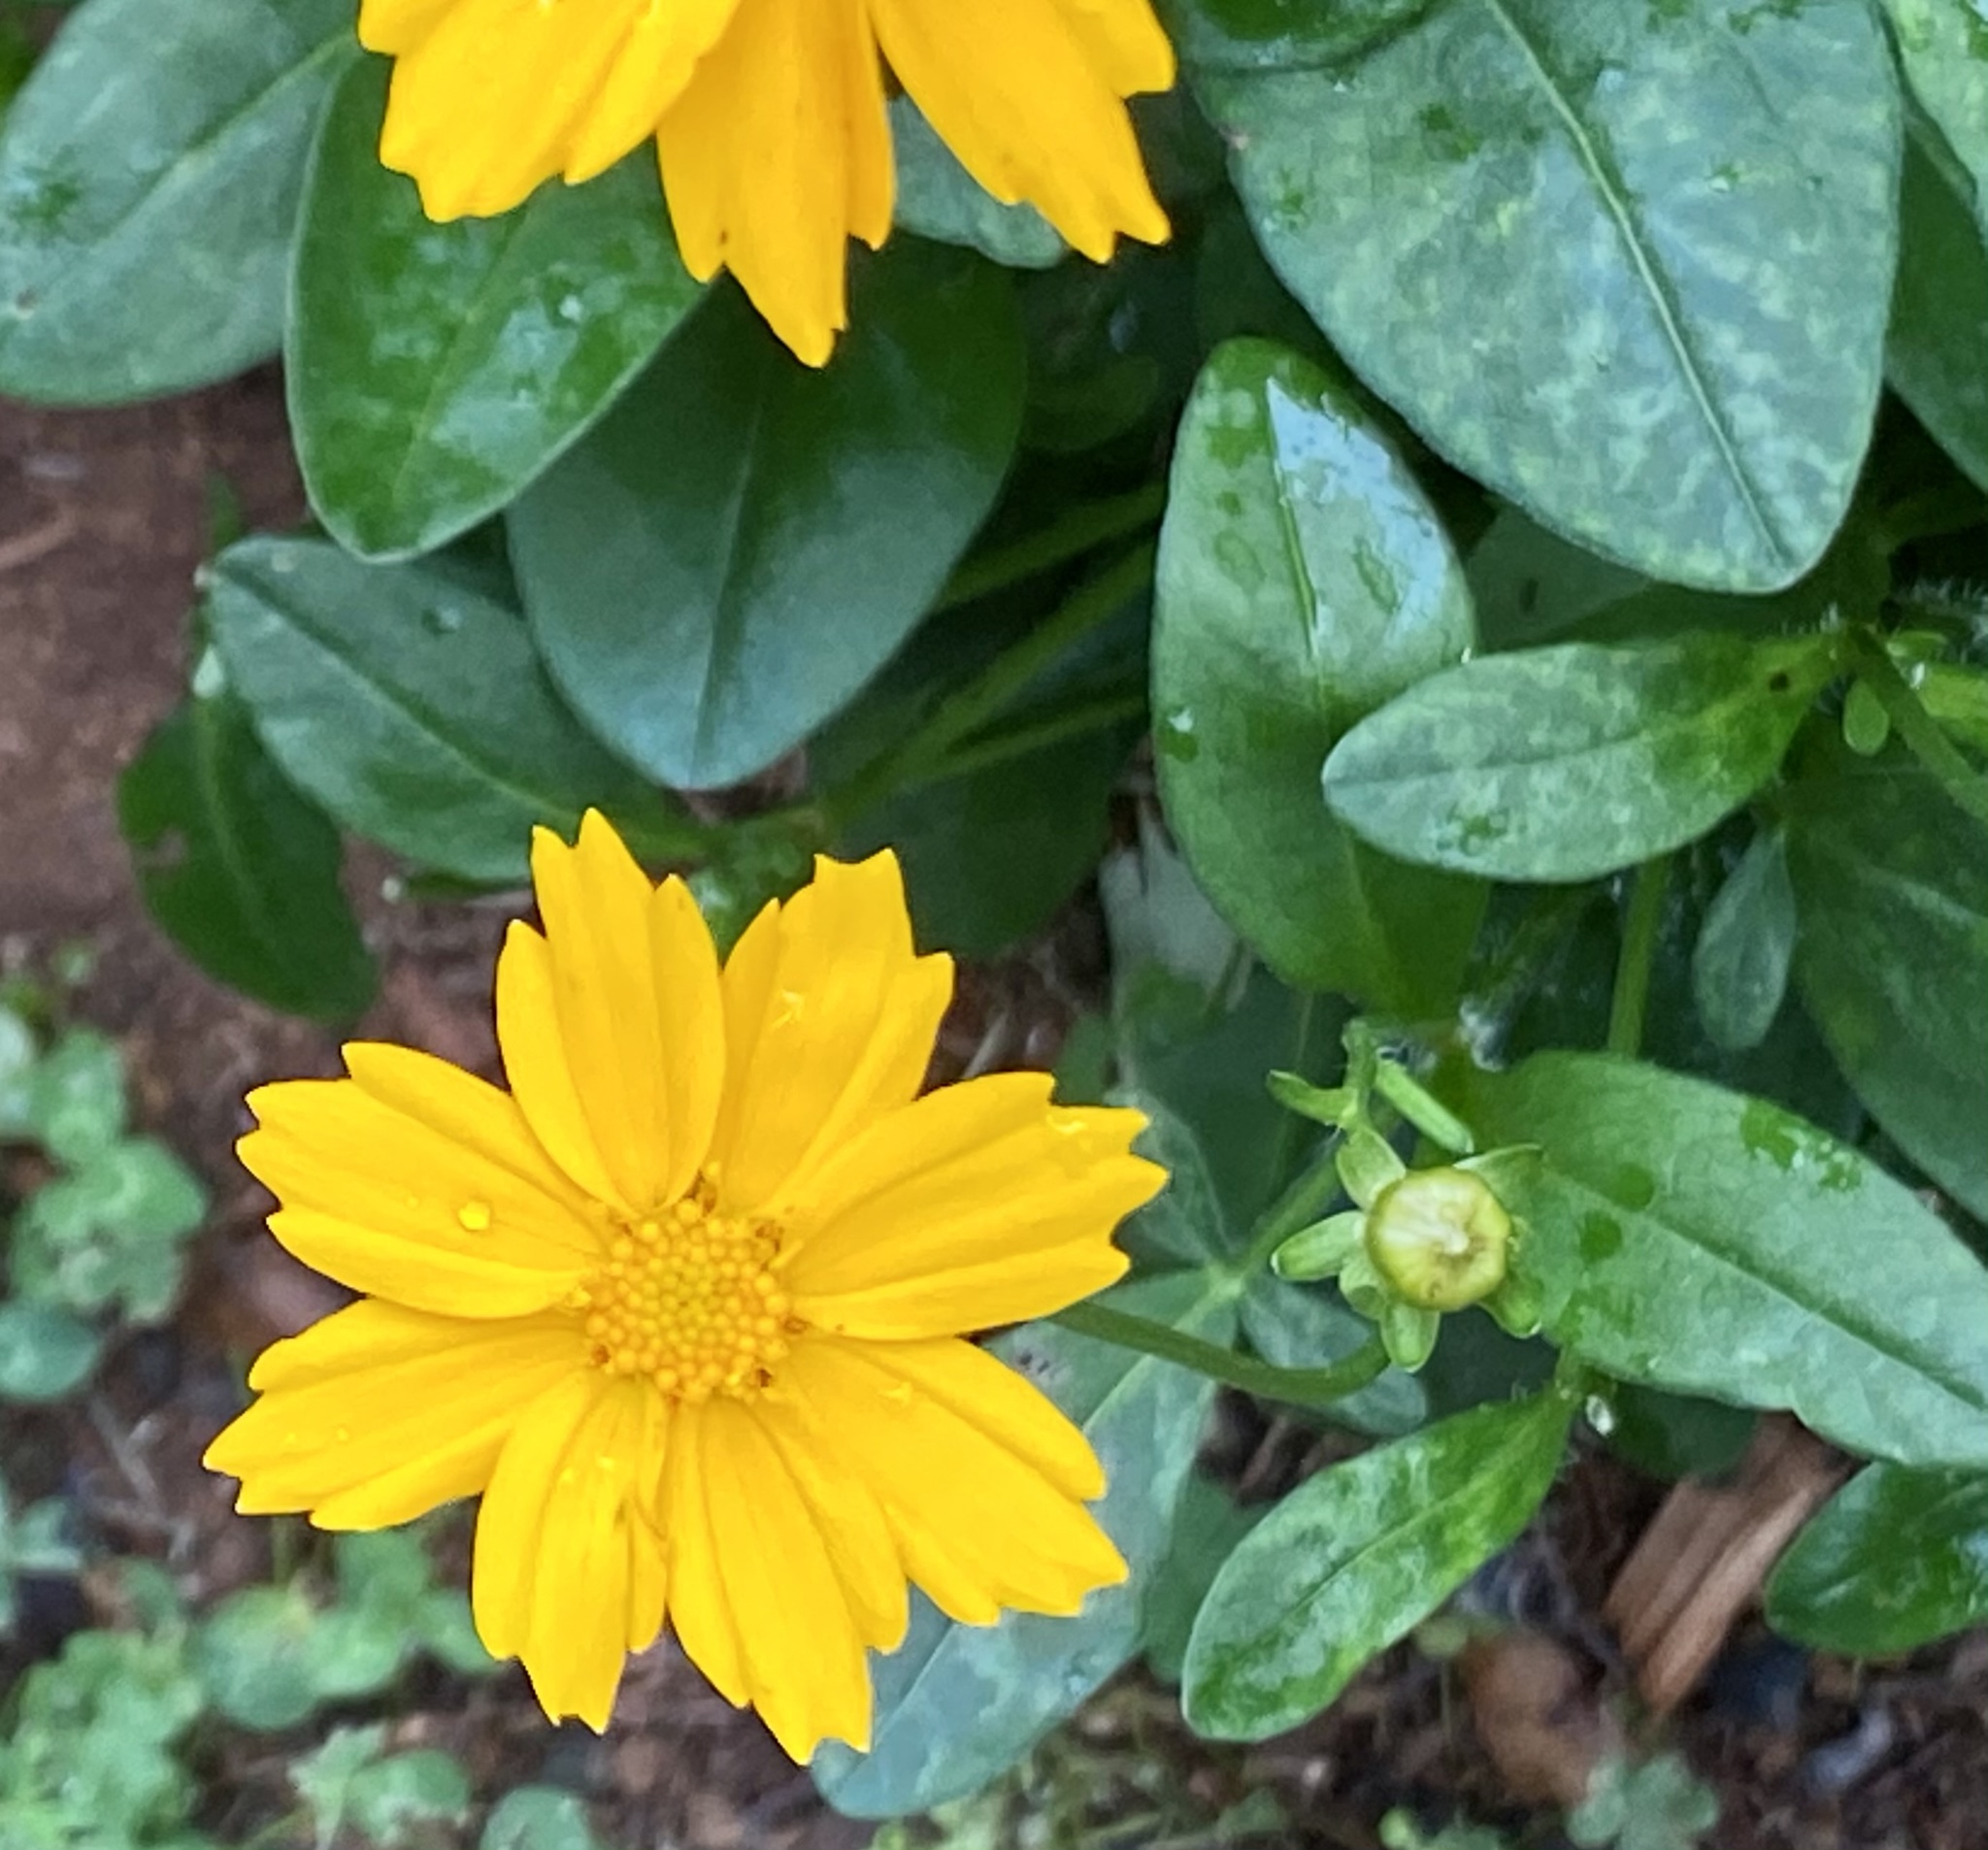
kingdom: Plantae
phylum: Tracheophyta
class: Magnoliopsida
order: Asterales
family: Asteraceae
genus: Coreopsis
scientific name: Coreopsis auriculata
